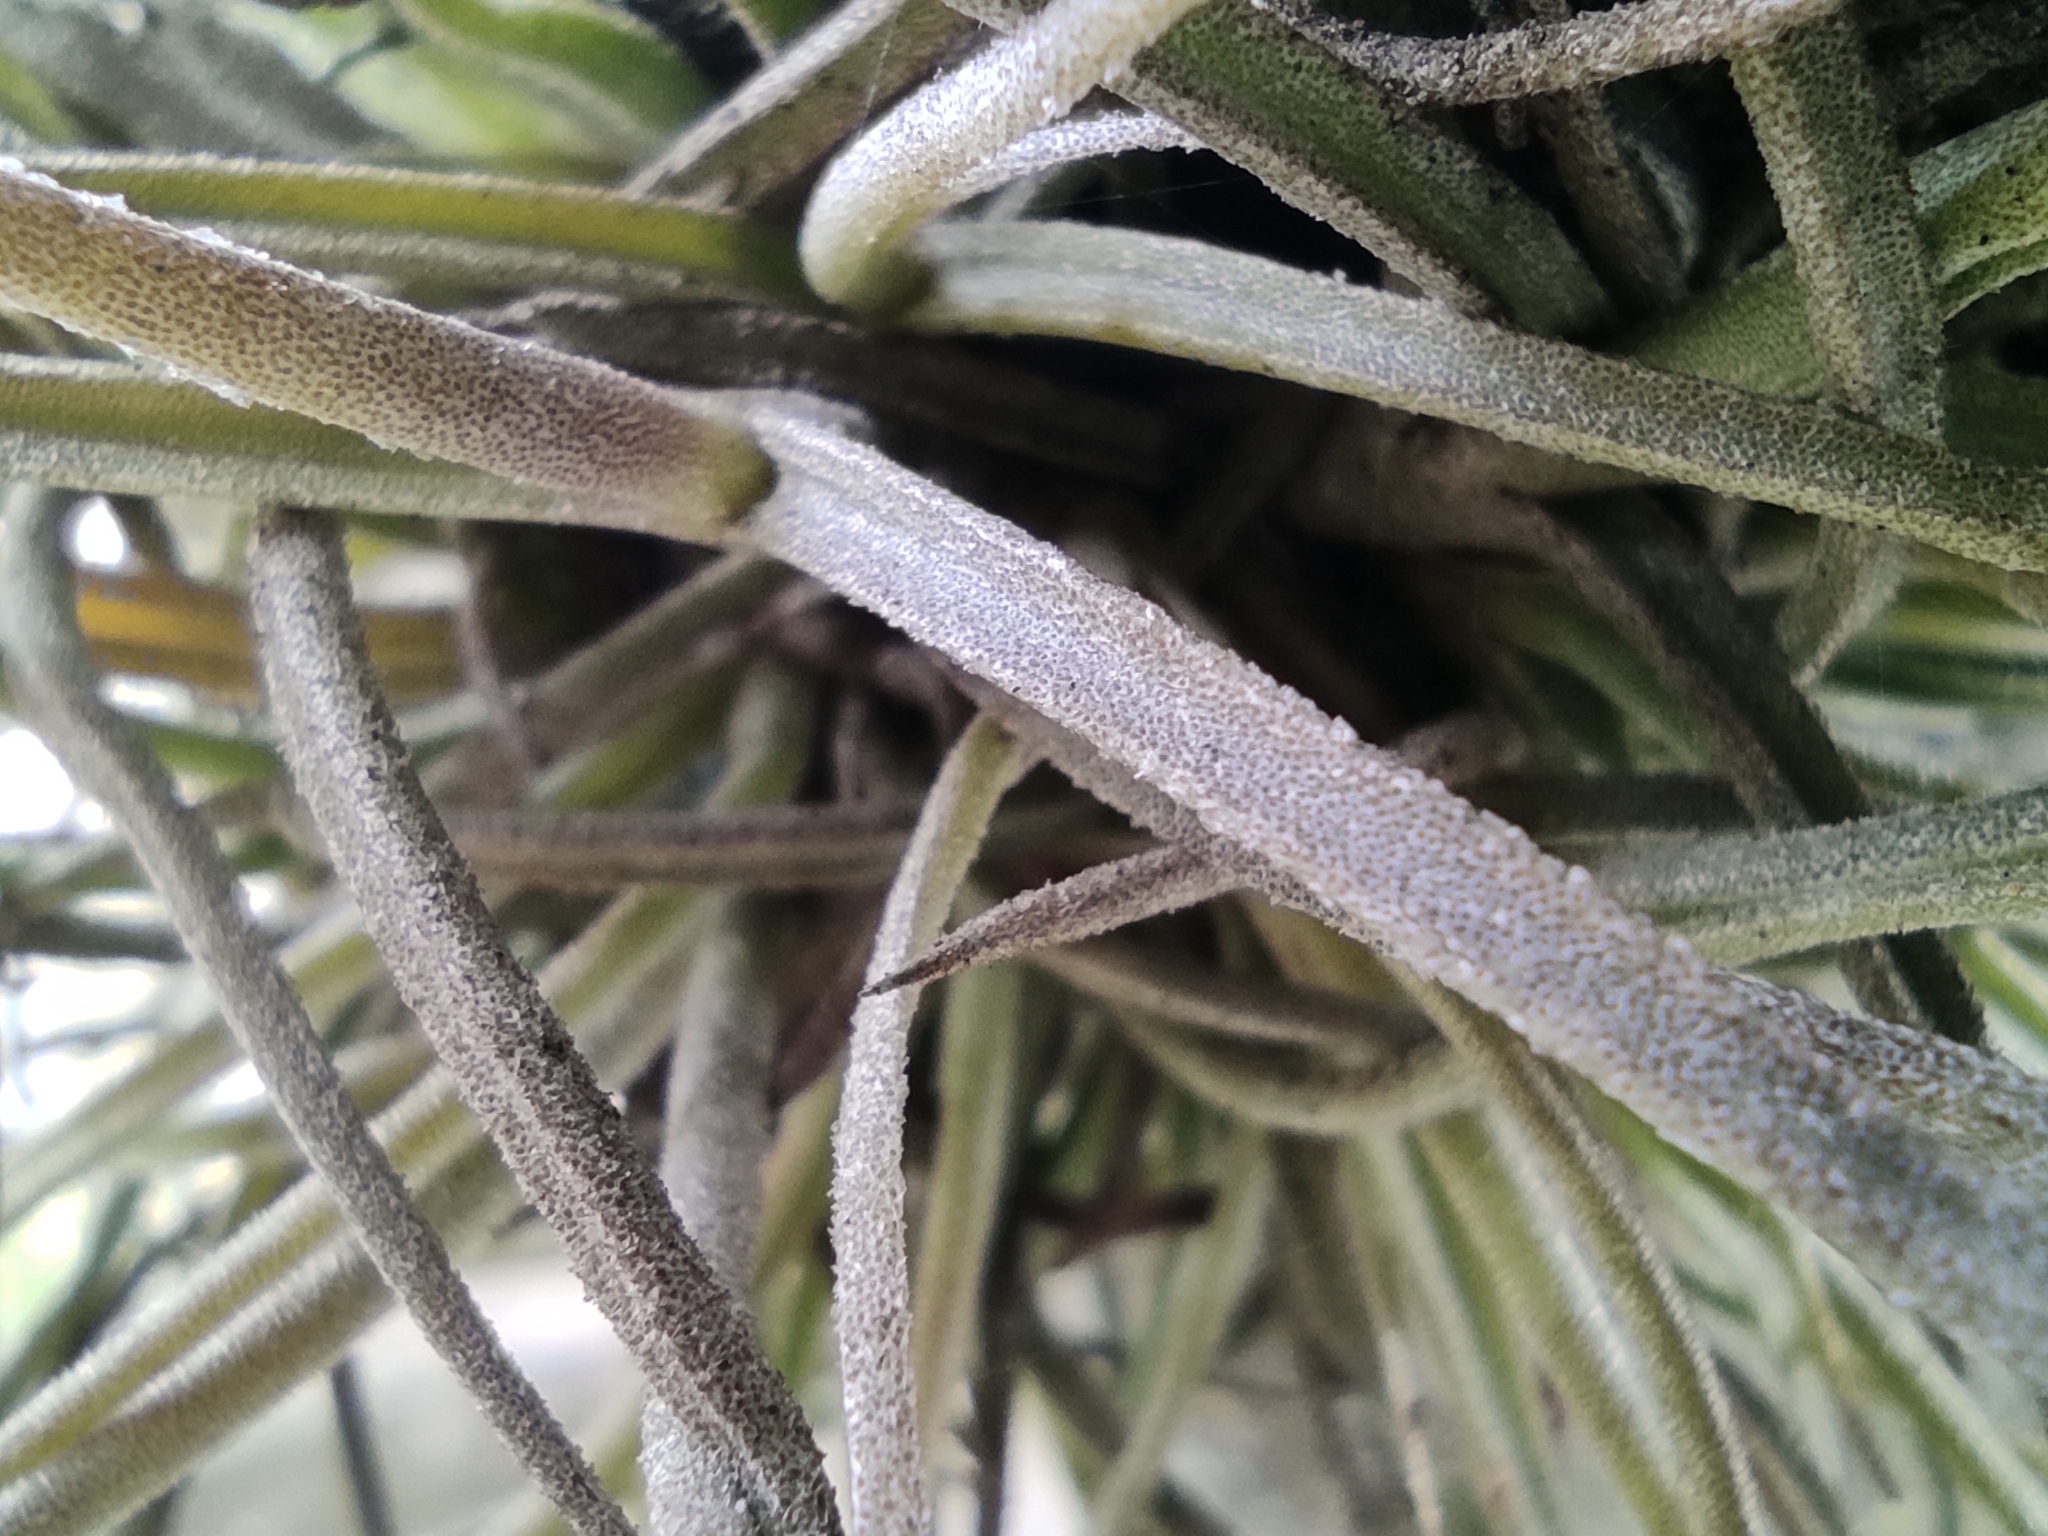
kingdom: Plantae
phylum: Tracheophyta
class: Liliopsida
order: Poales
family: Bromeliaceae
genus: Tillandsia
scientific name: Tillandsia recurvata
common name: Small ballmoss
